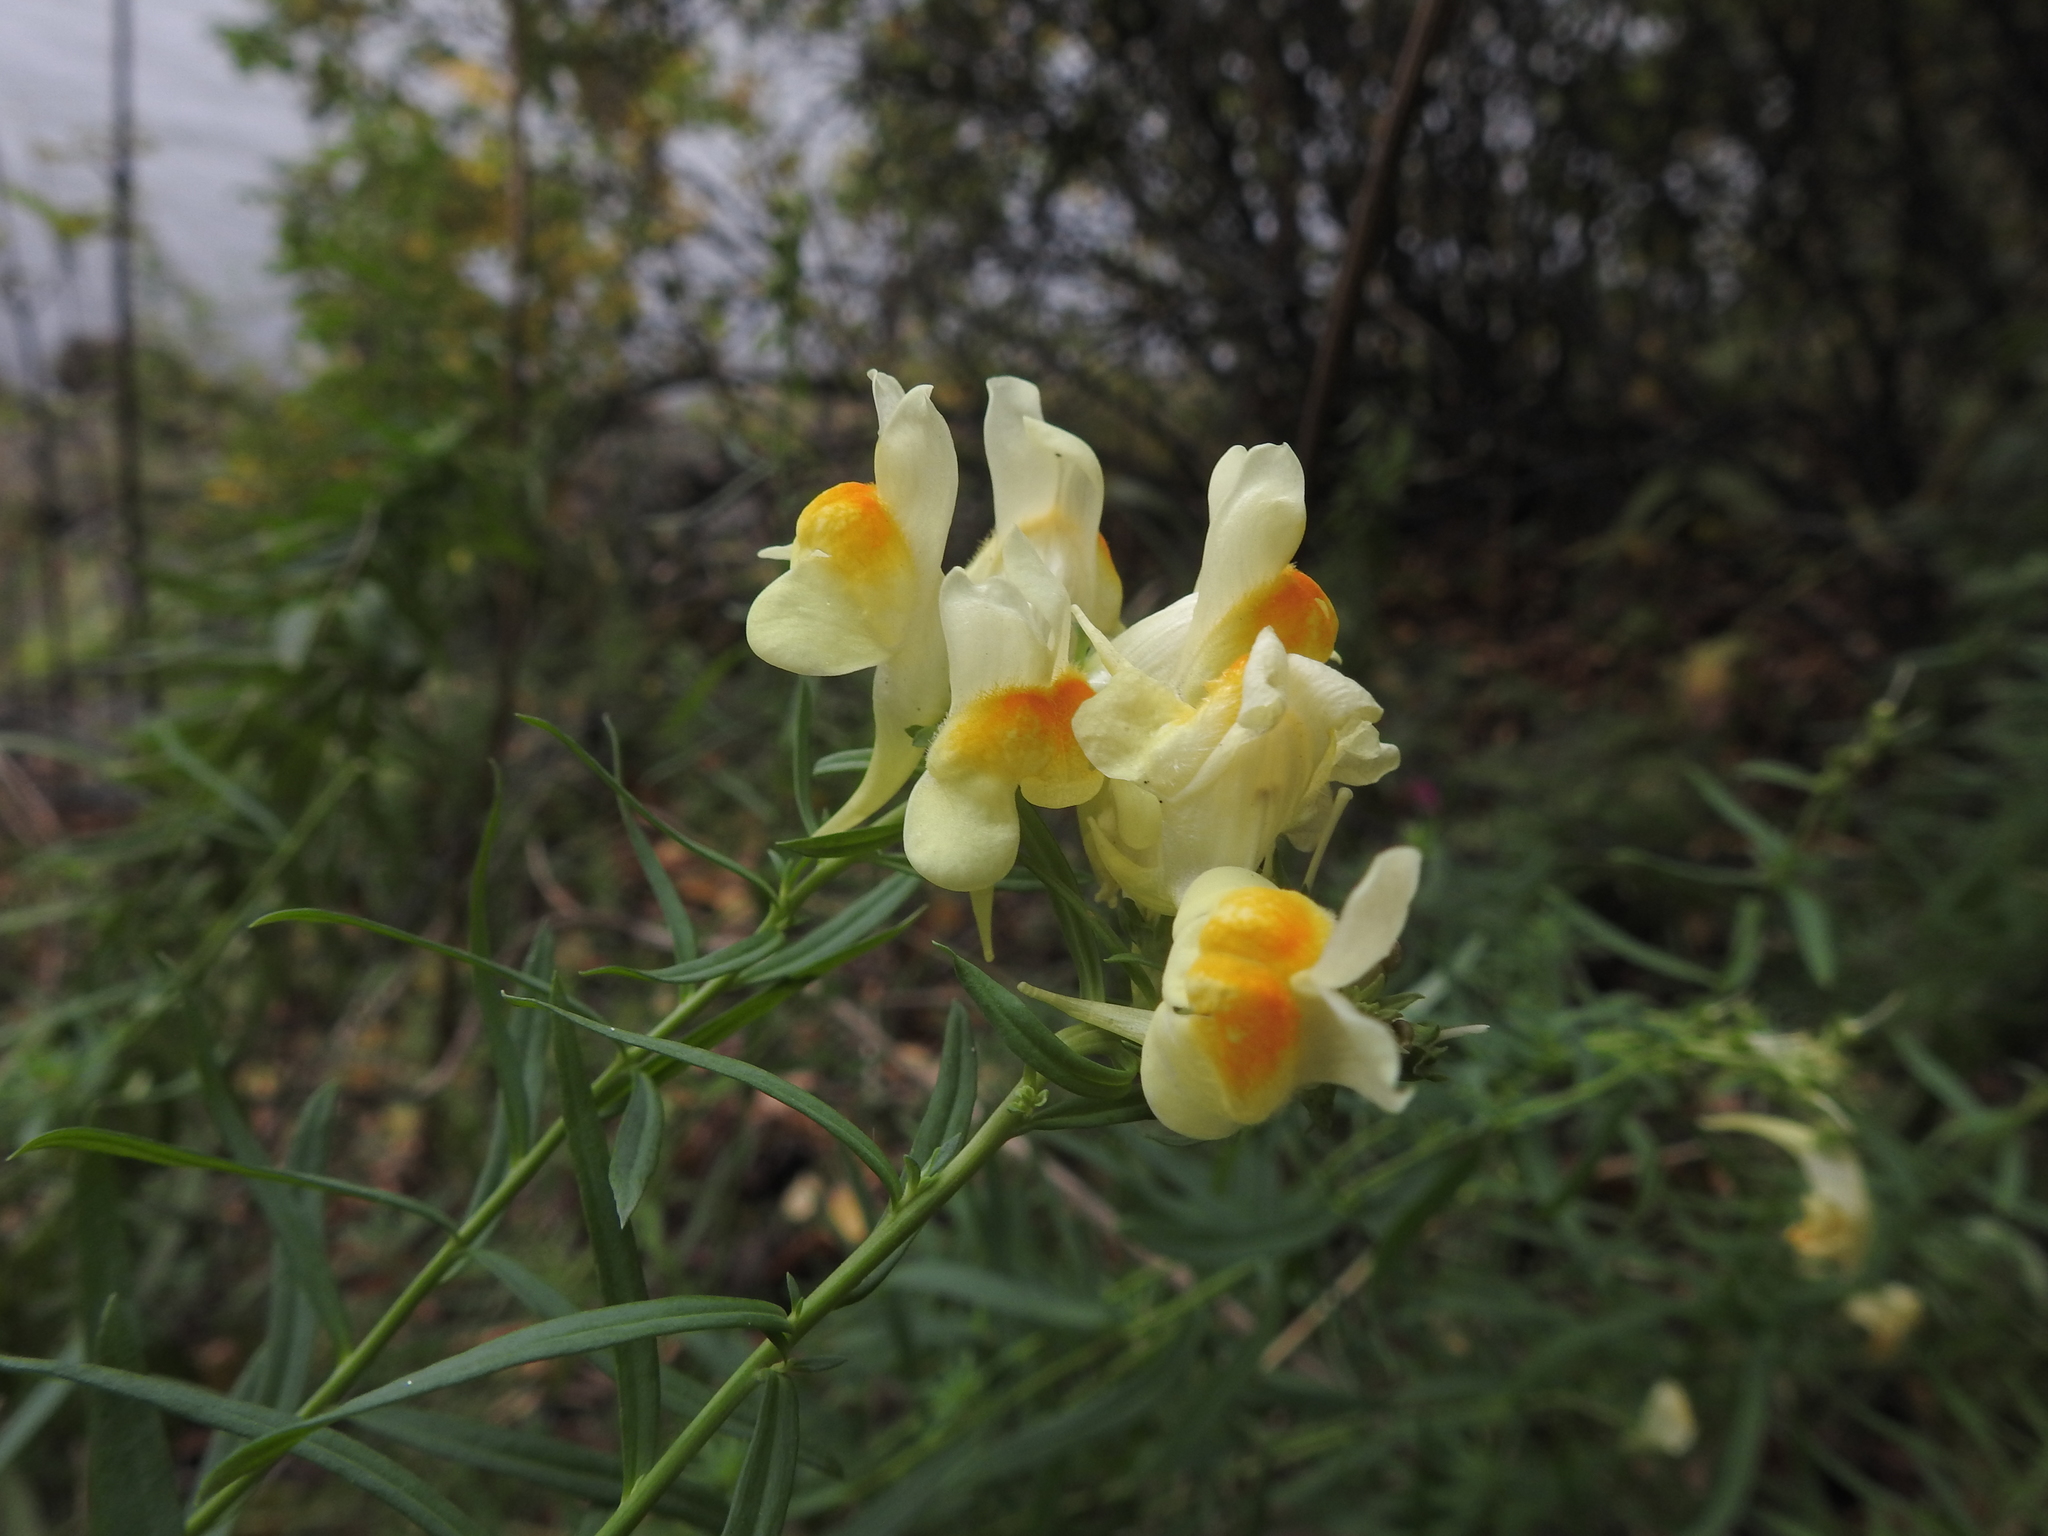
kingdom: Plantae
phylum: Tracheophyta
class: Magnoliopsida
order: Lamiales
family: Plantaginaceae
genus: Linaria
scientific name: Linaria vulgaris
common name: Butter and eggs
